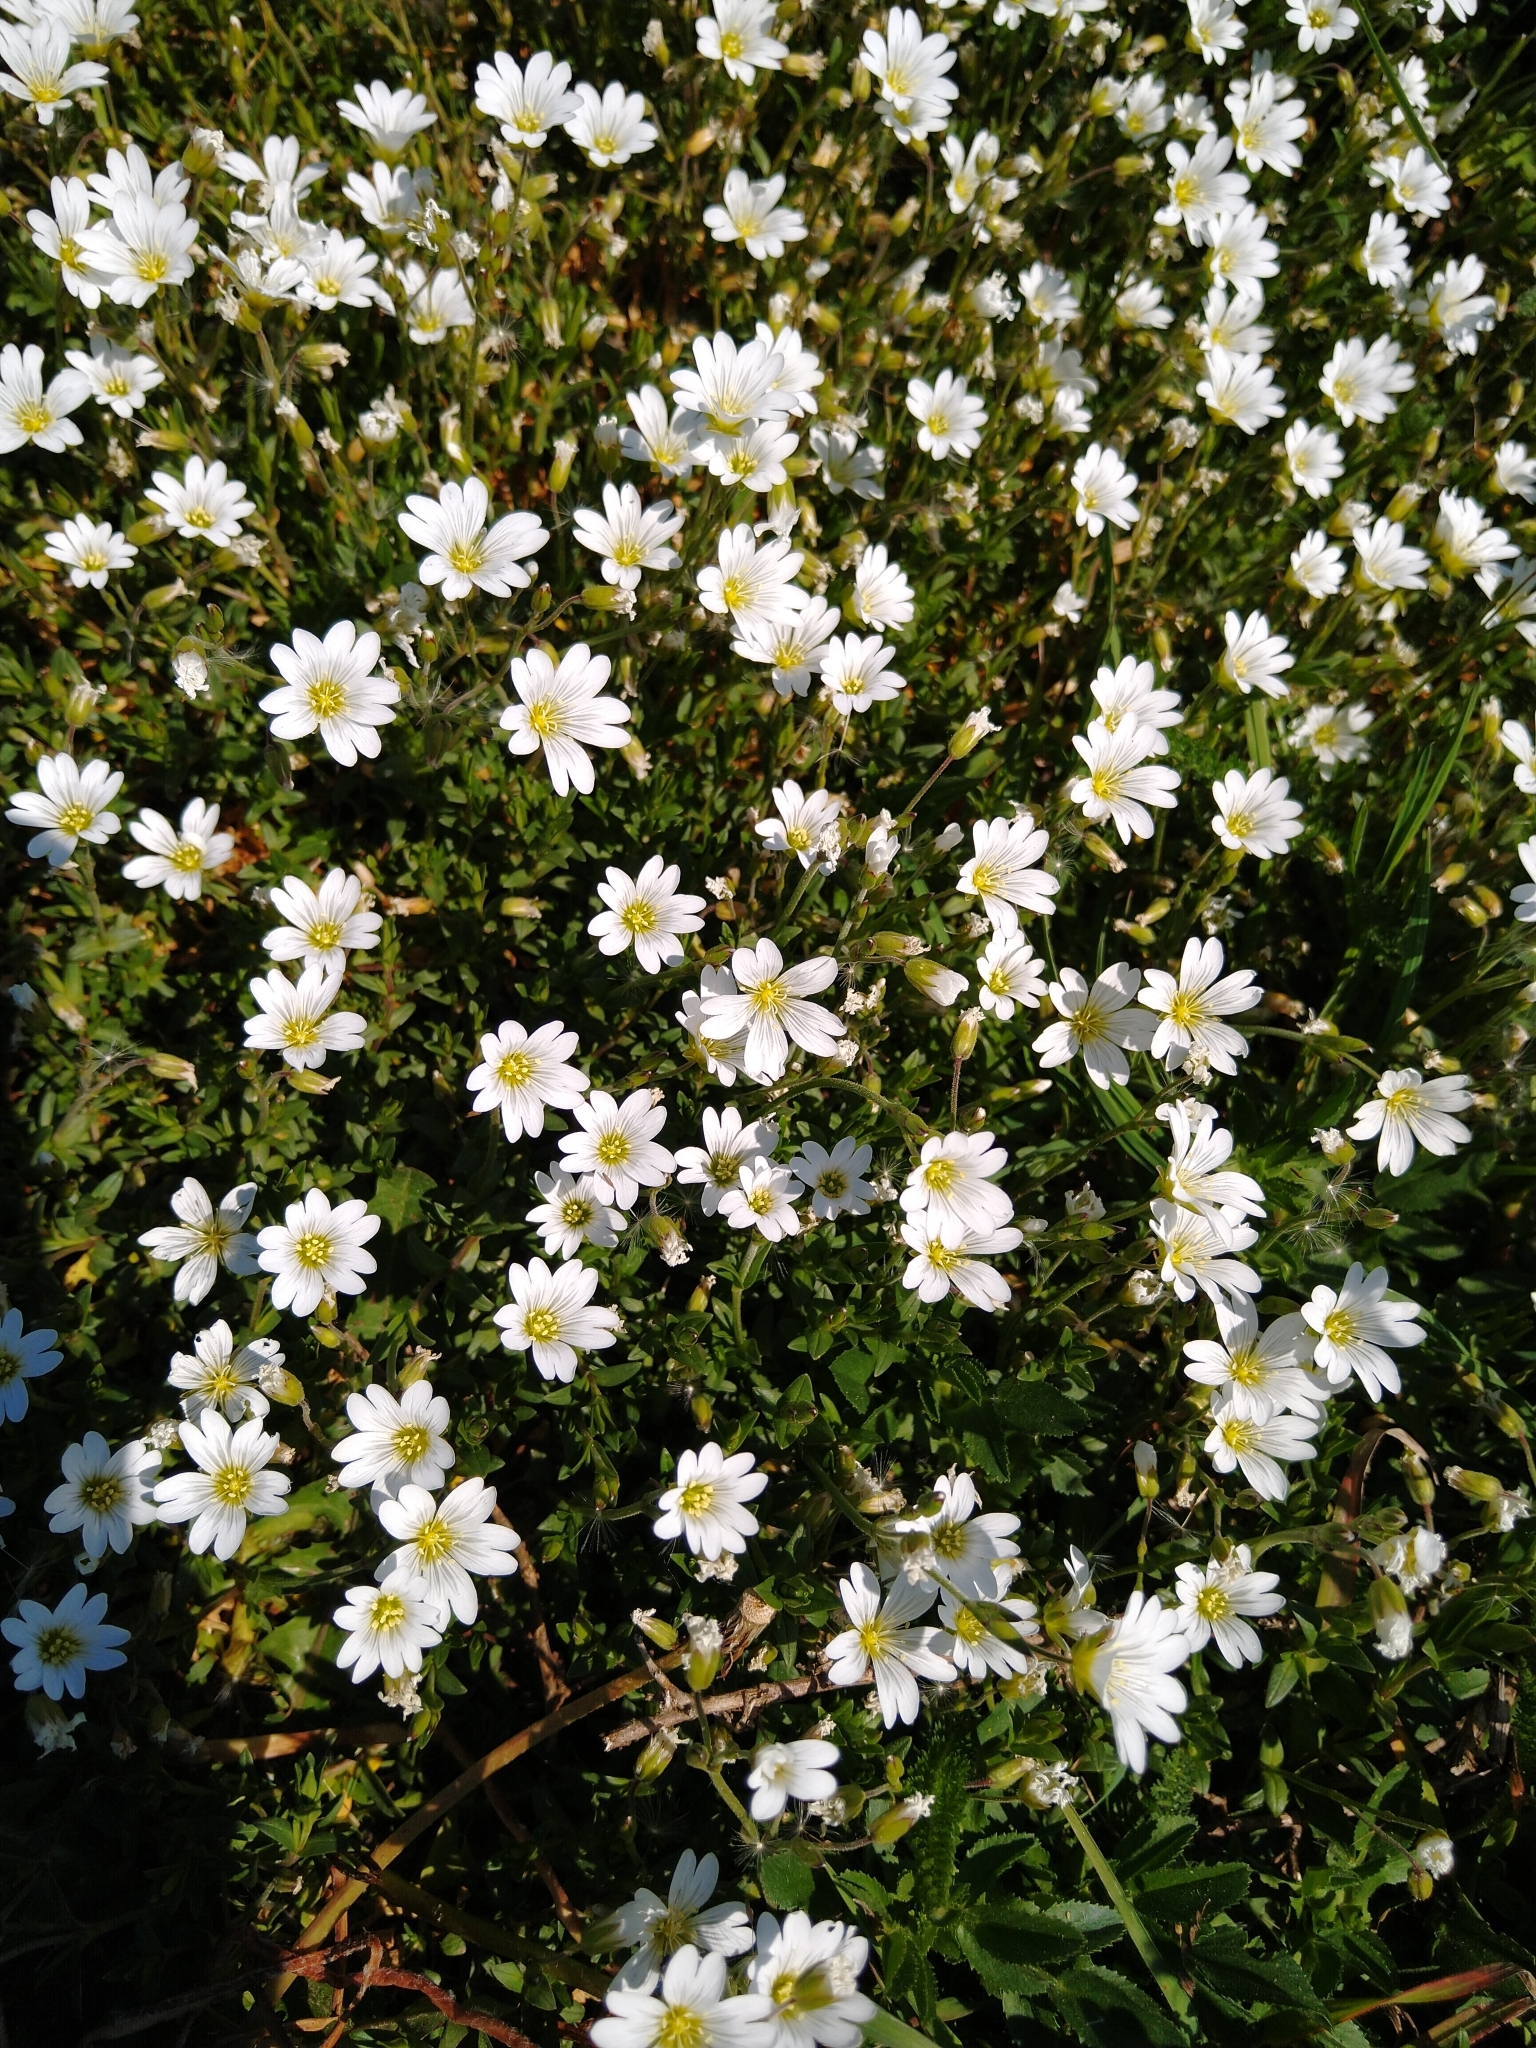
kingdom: Plantae
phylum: Tracheophyta
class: Magnoliopsida
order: Caryophyllales
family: Caryophyllaceae
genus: Cerastium
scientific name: Cerastium arvense
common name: Field mouse-ear
